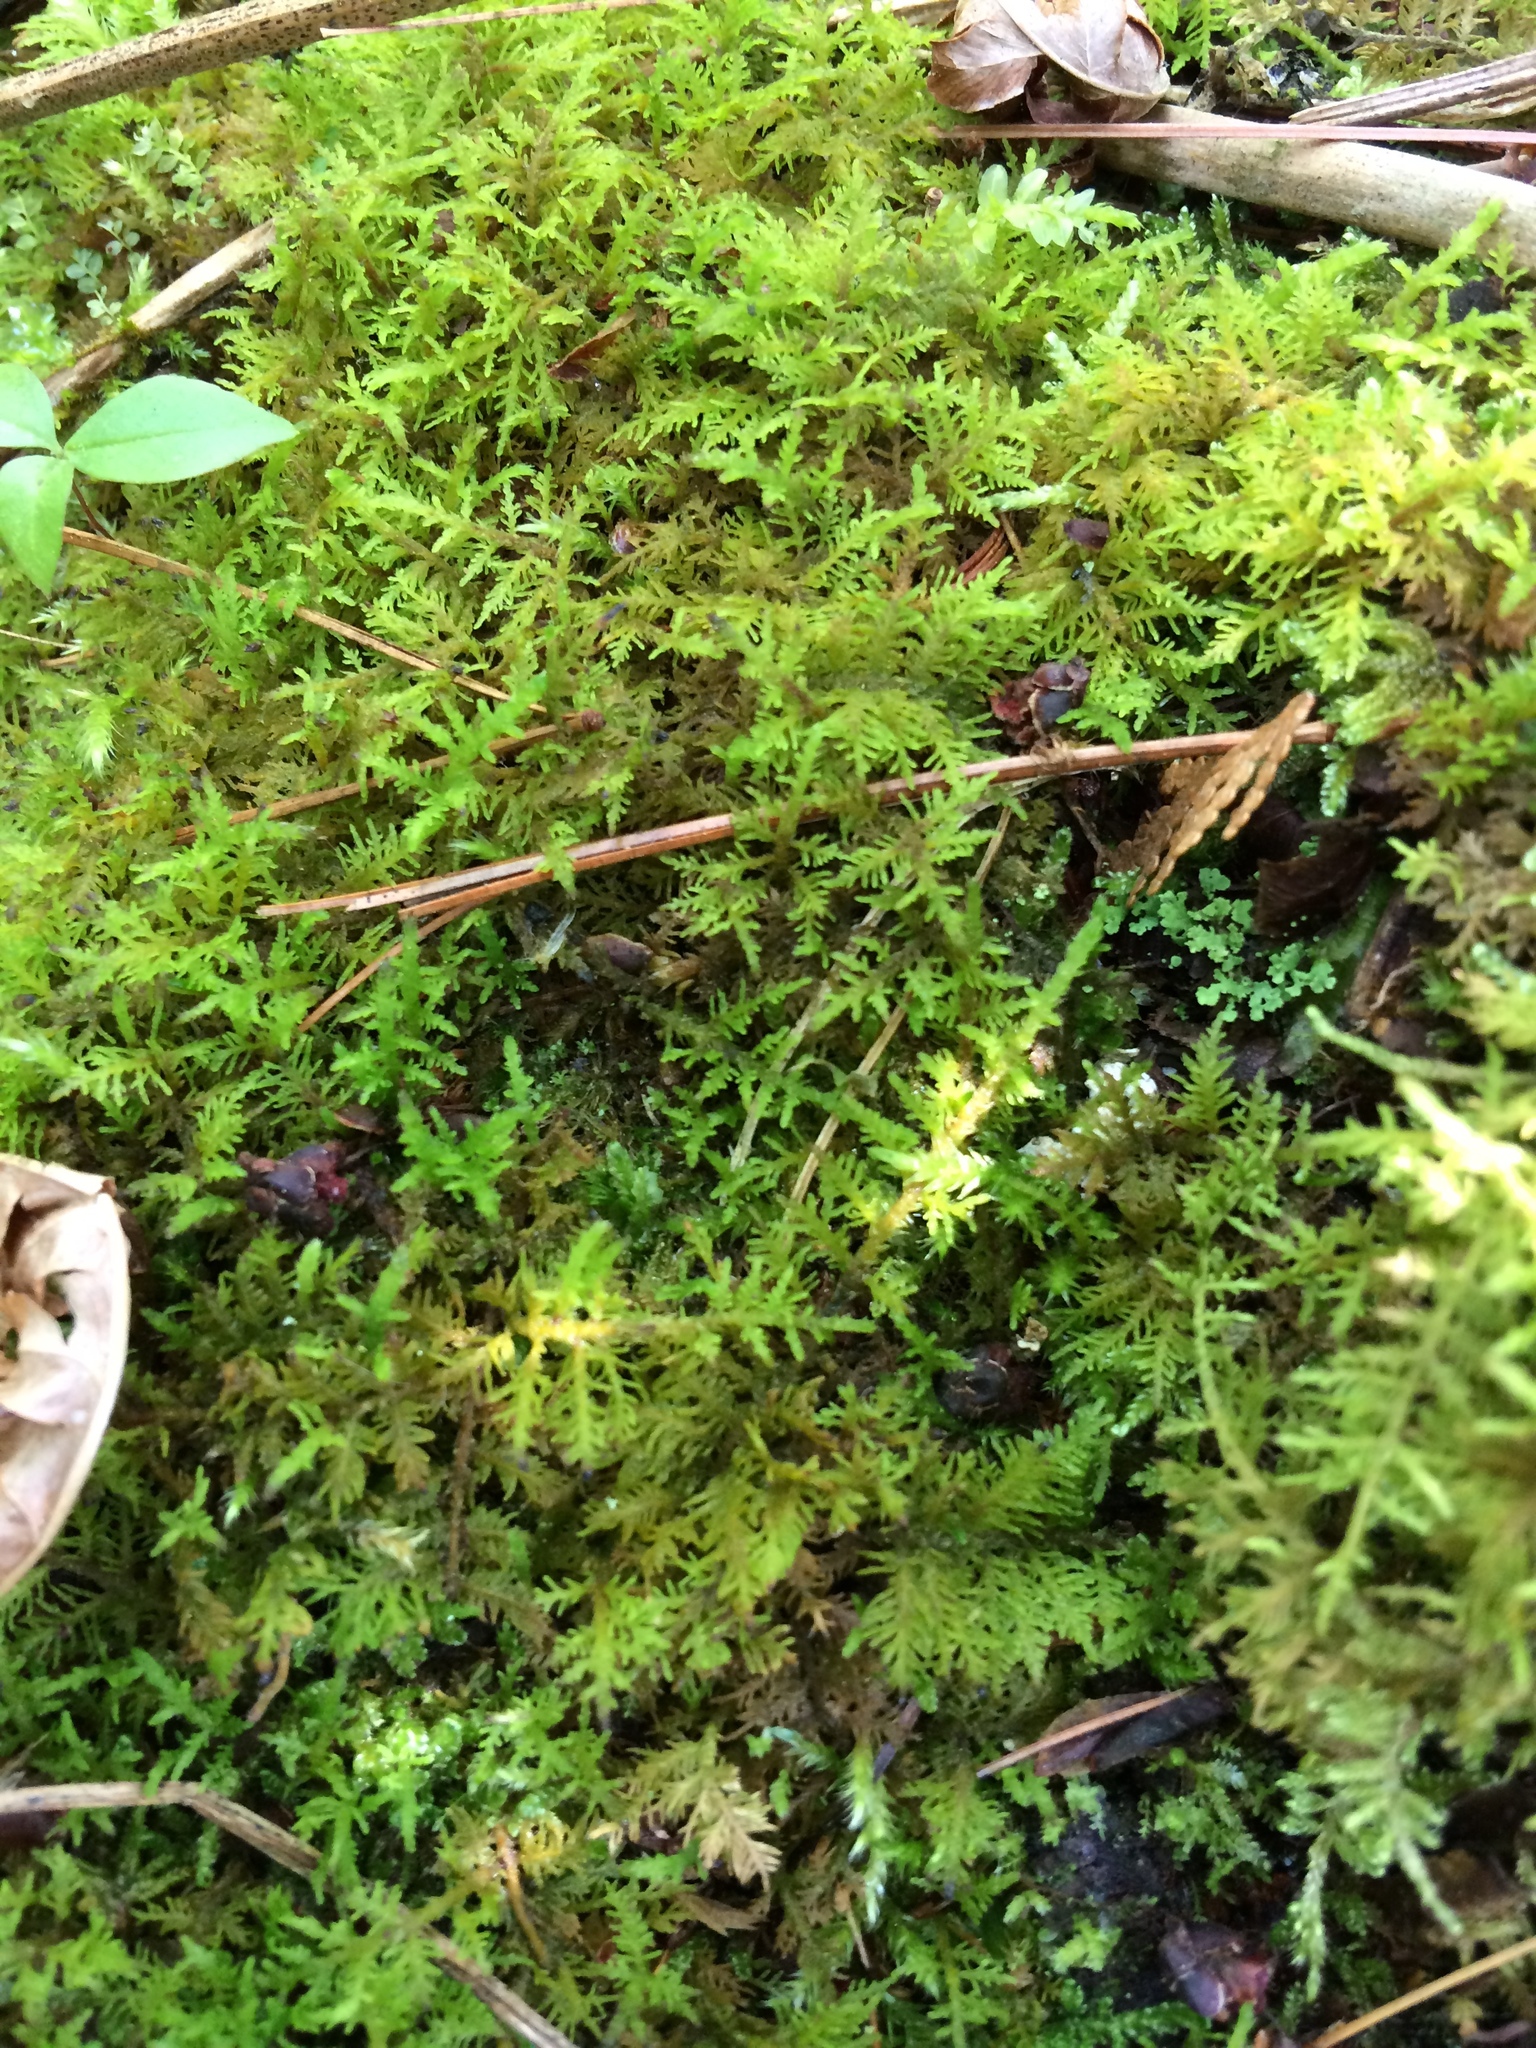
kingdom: Plantae
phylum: Bryophyta
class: Bryopsida
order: Hypnales
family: Thuidiaceae
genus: Thuidium
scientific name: Thuidium
